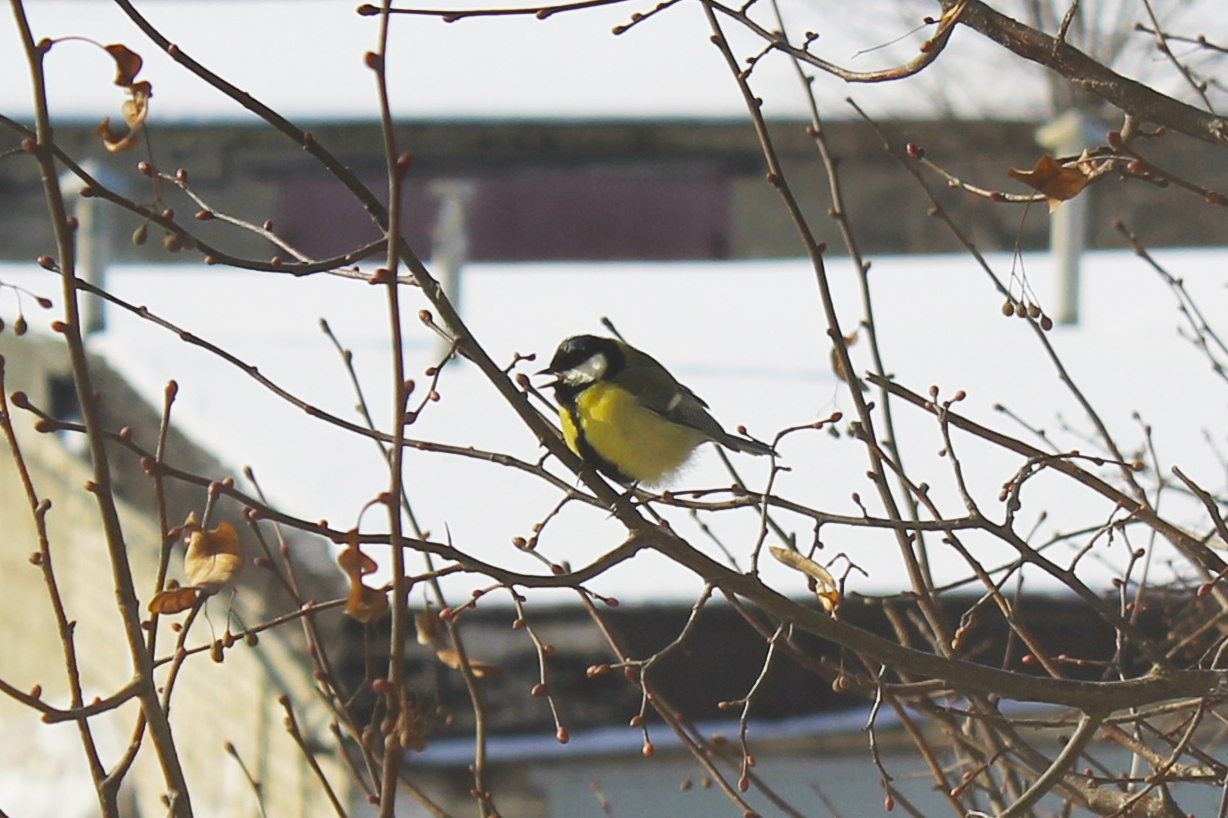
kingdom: Animalia
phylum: Chordata
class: Aves
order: Passeriformes
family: Paridae
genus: Parus
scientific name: Parus major
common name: Great tit
